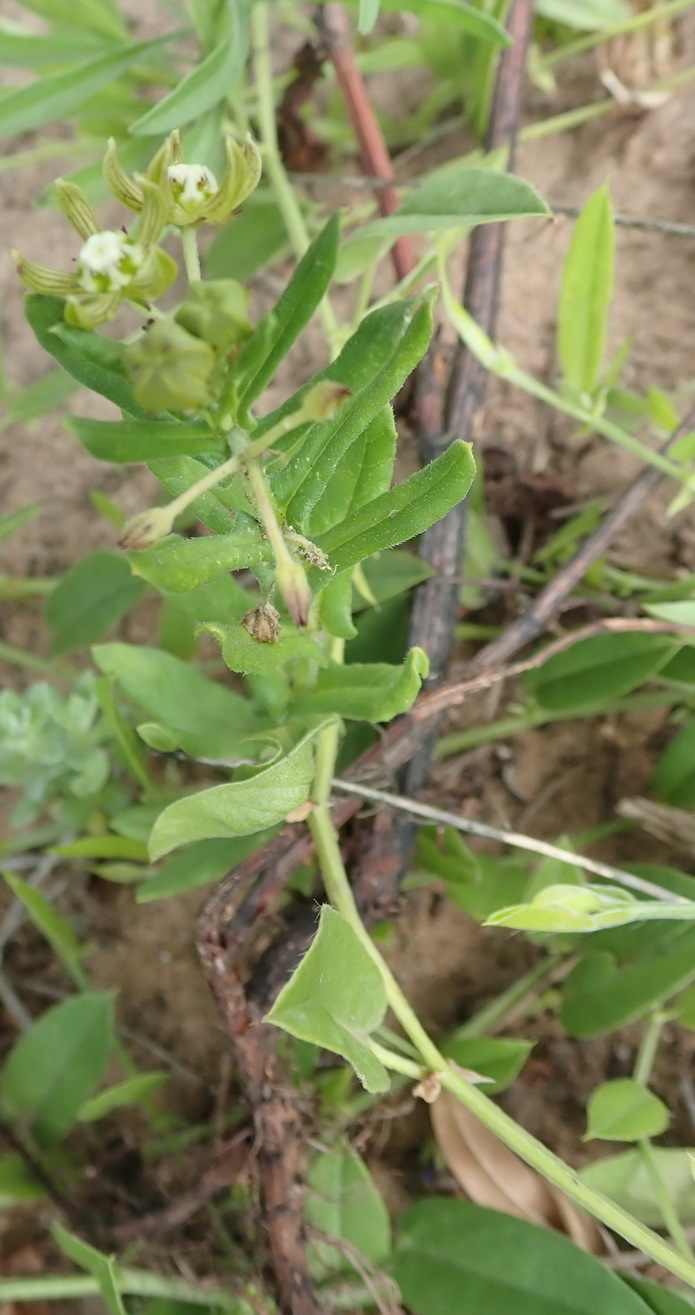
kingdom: Plantae
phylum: Tracheophyta
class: Magnoliopsida
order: Gentianales
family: Apocynaceae
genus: Schizoglossum
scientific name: Schizoglossum cordifolium
